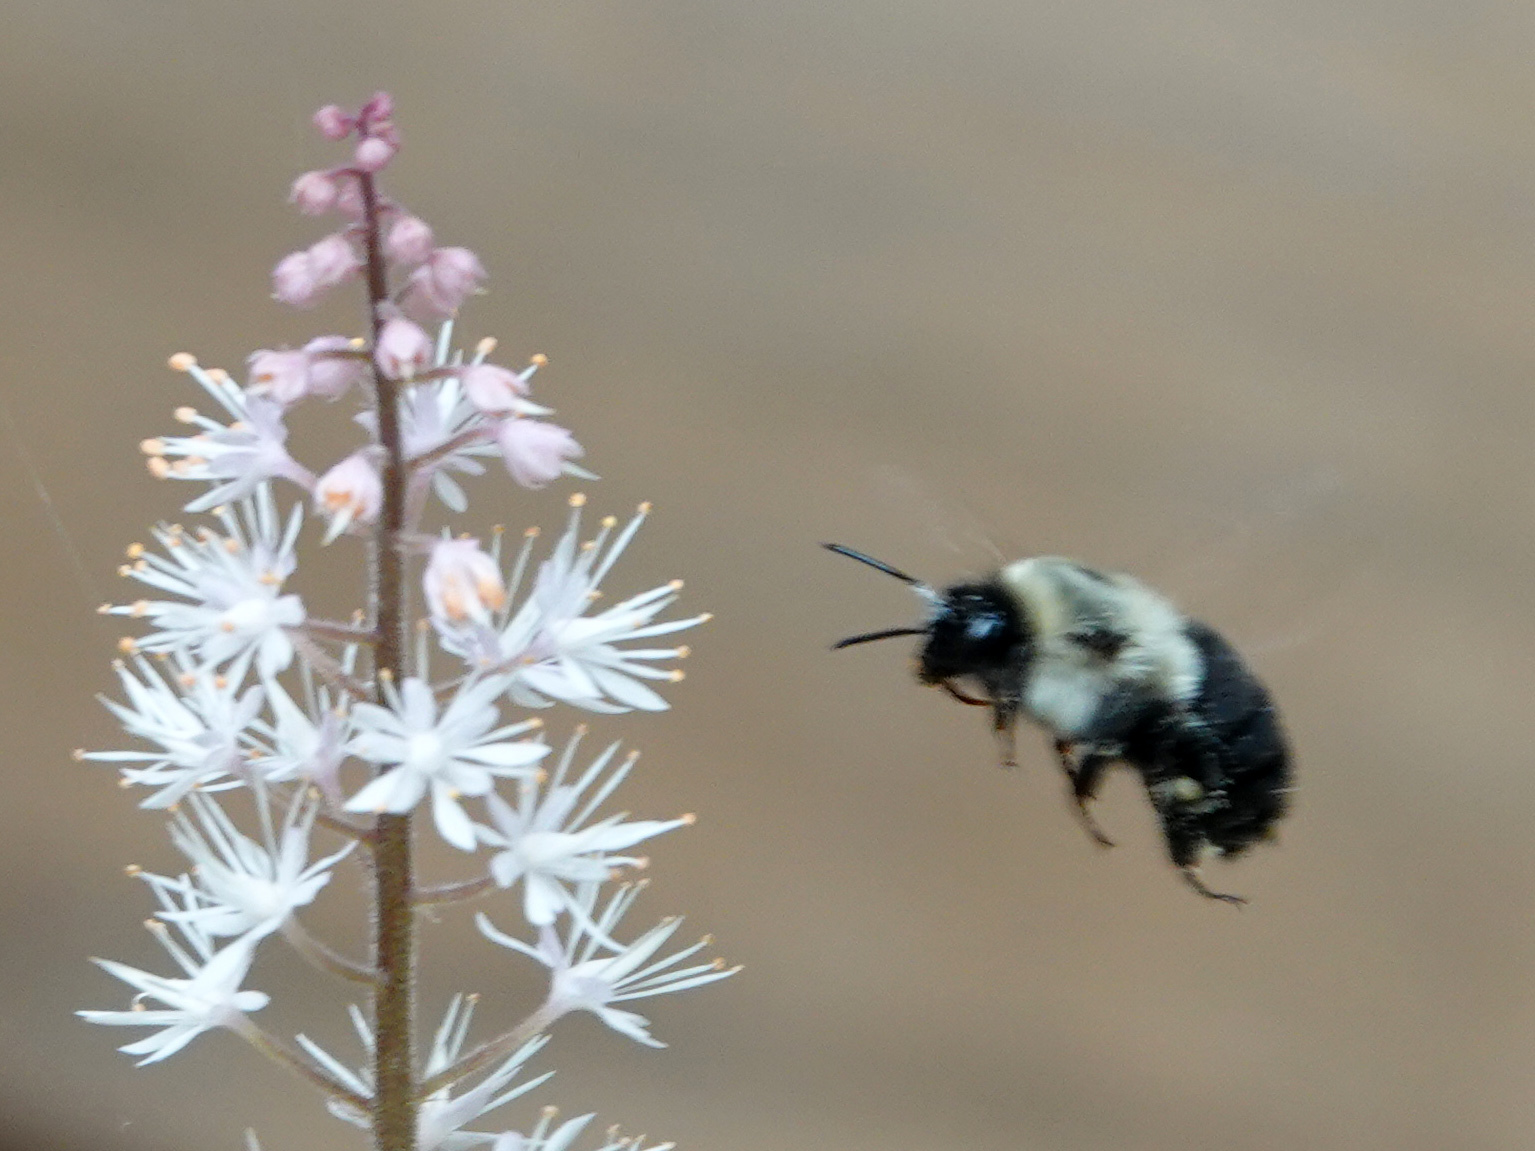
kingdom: Animalia
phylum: Arthropoda
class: Insecta
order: Hymenoptera
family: Apidae
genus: Bombus
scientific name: Bombus impatiens
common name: Common eastern bumble bee
